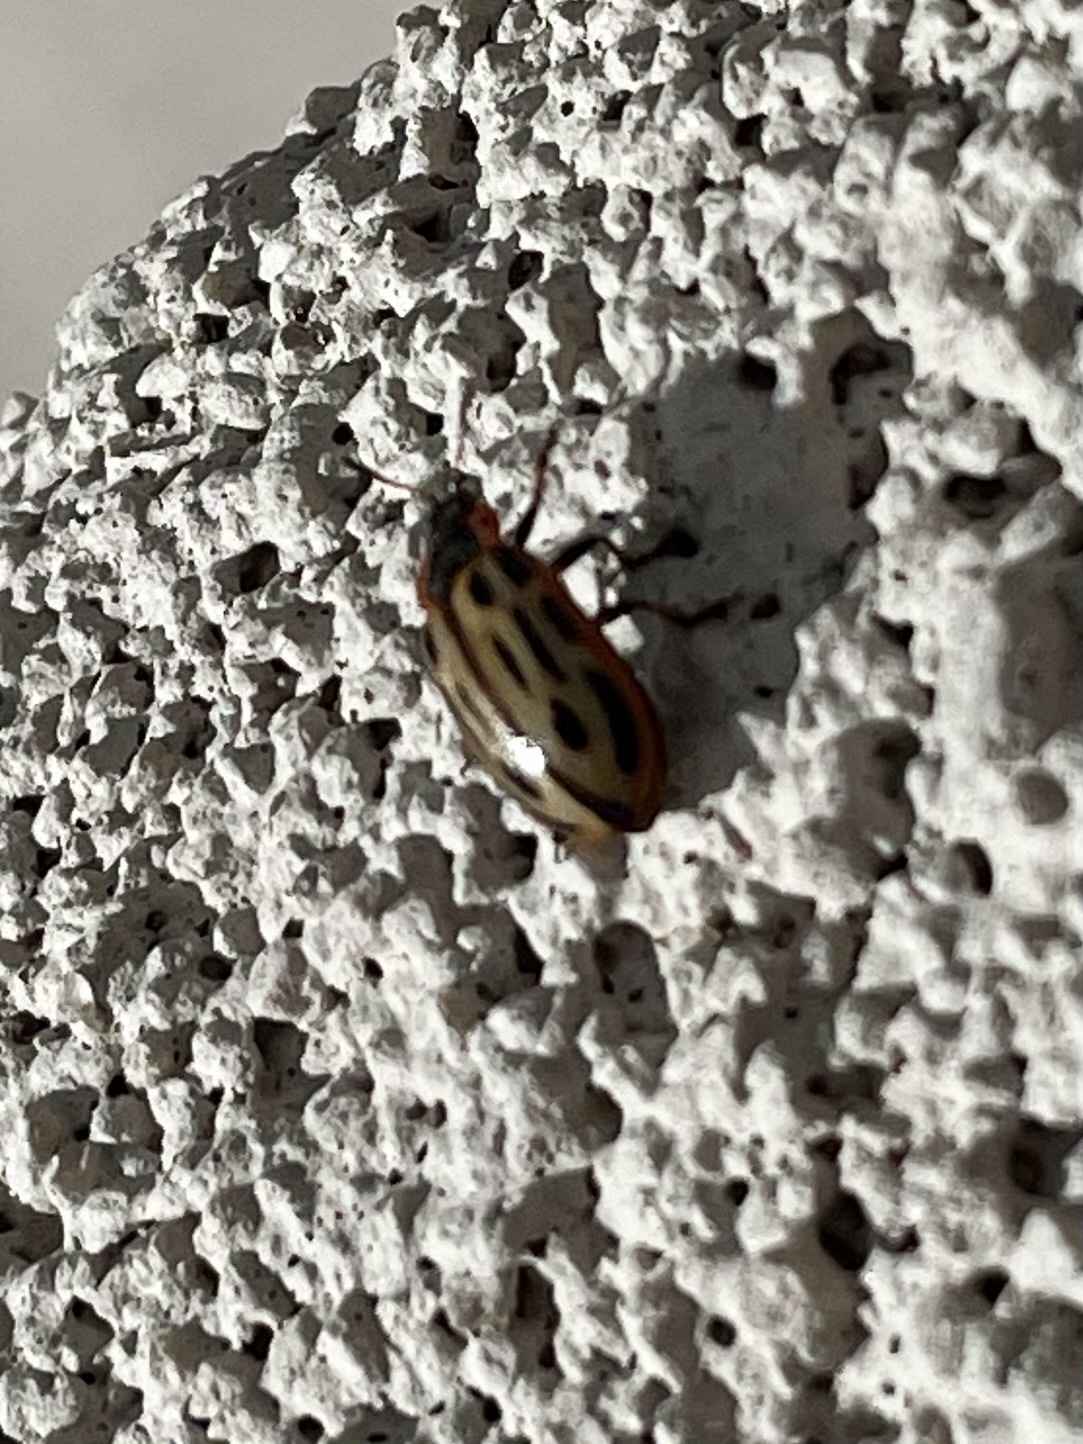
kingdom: Animalia
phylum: Arthropoda
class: Insecta
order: Coleoptera
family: Chrysomelidae
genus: Aethiopocassis
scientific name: Aethiopocassis scripta
